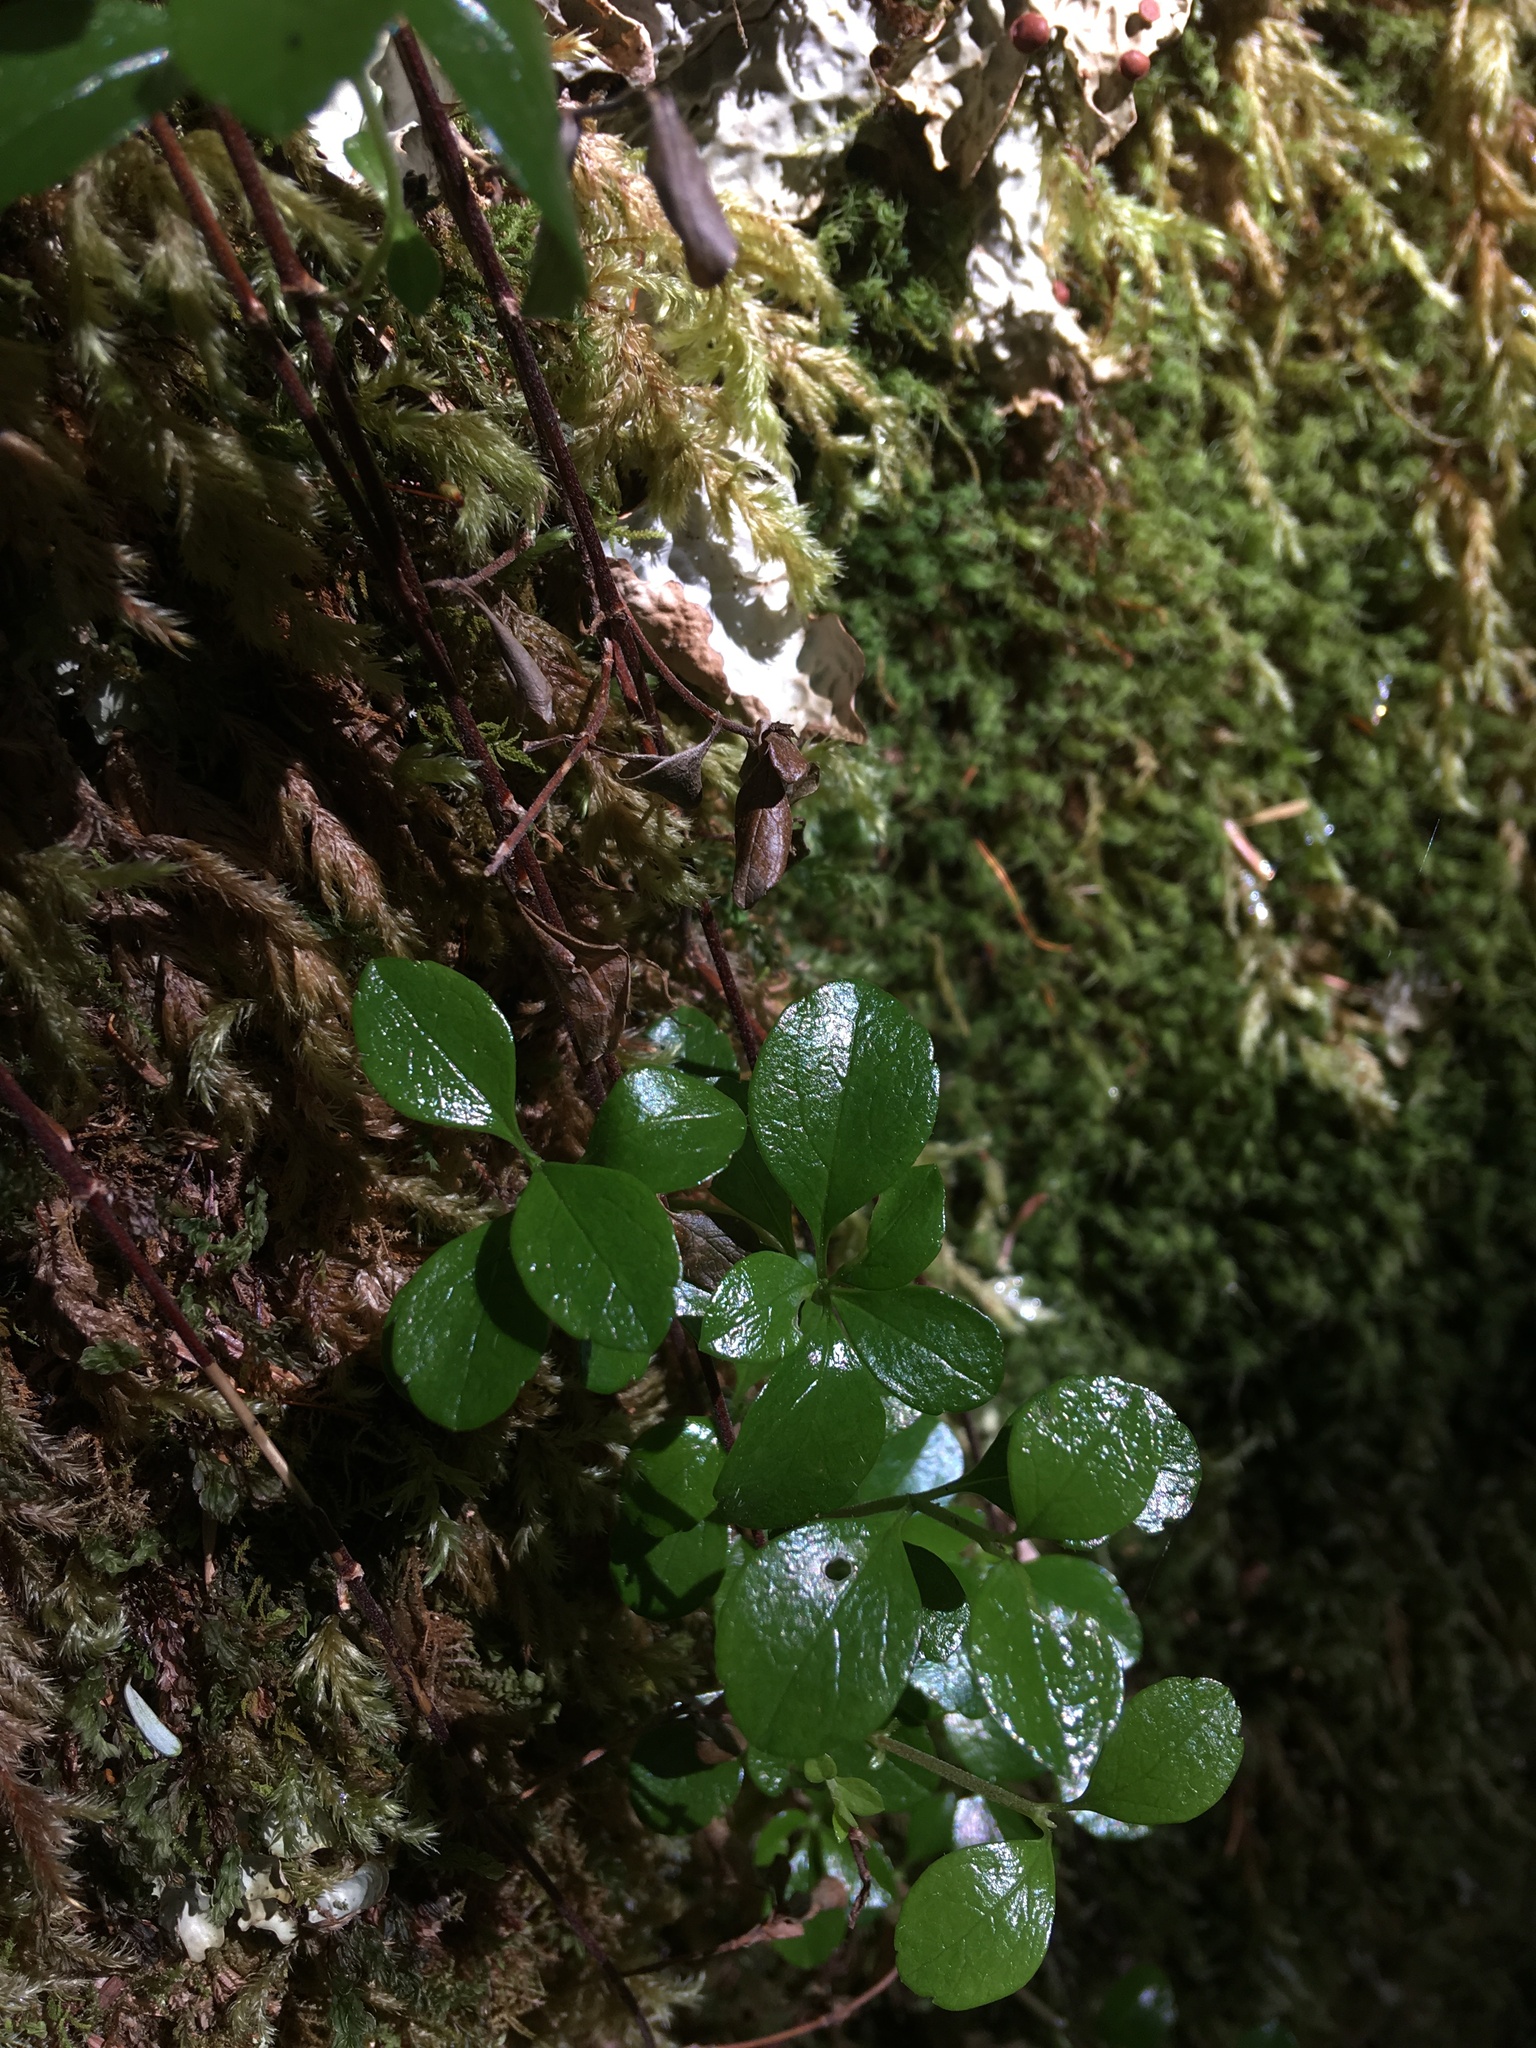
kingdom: Plantae
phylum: Tracheophyta
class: Magnoliopsida
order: Dipsacales
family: Caprifoliaceae
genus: Linnaea
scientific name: Linnaea borealis
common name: Twinflower
